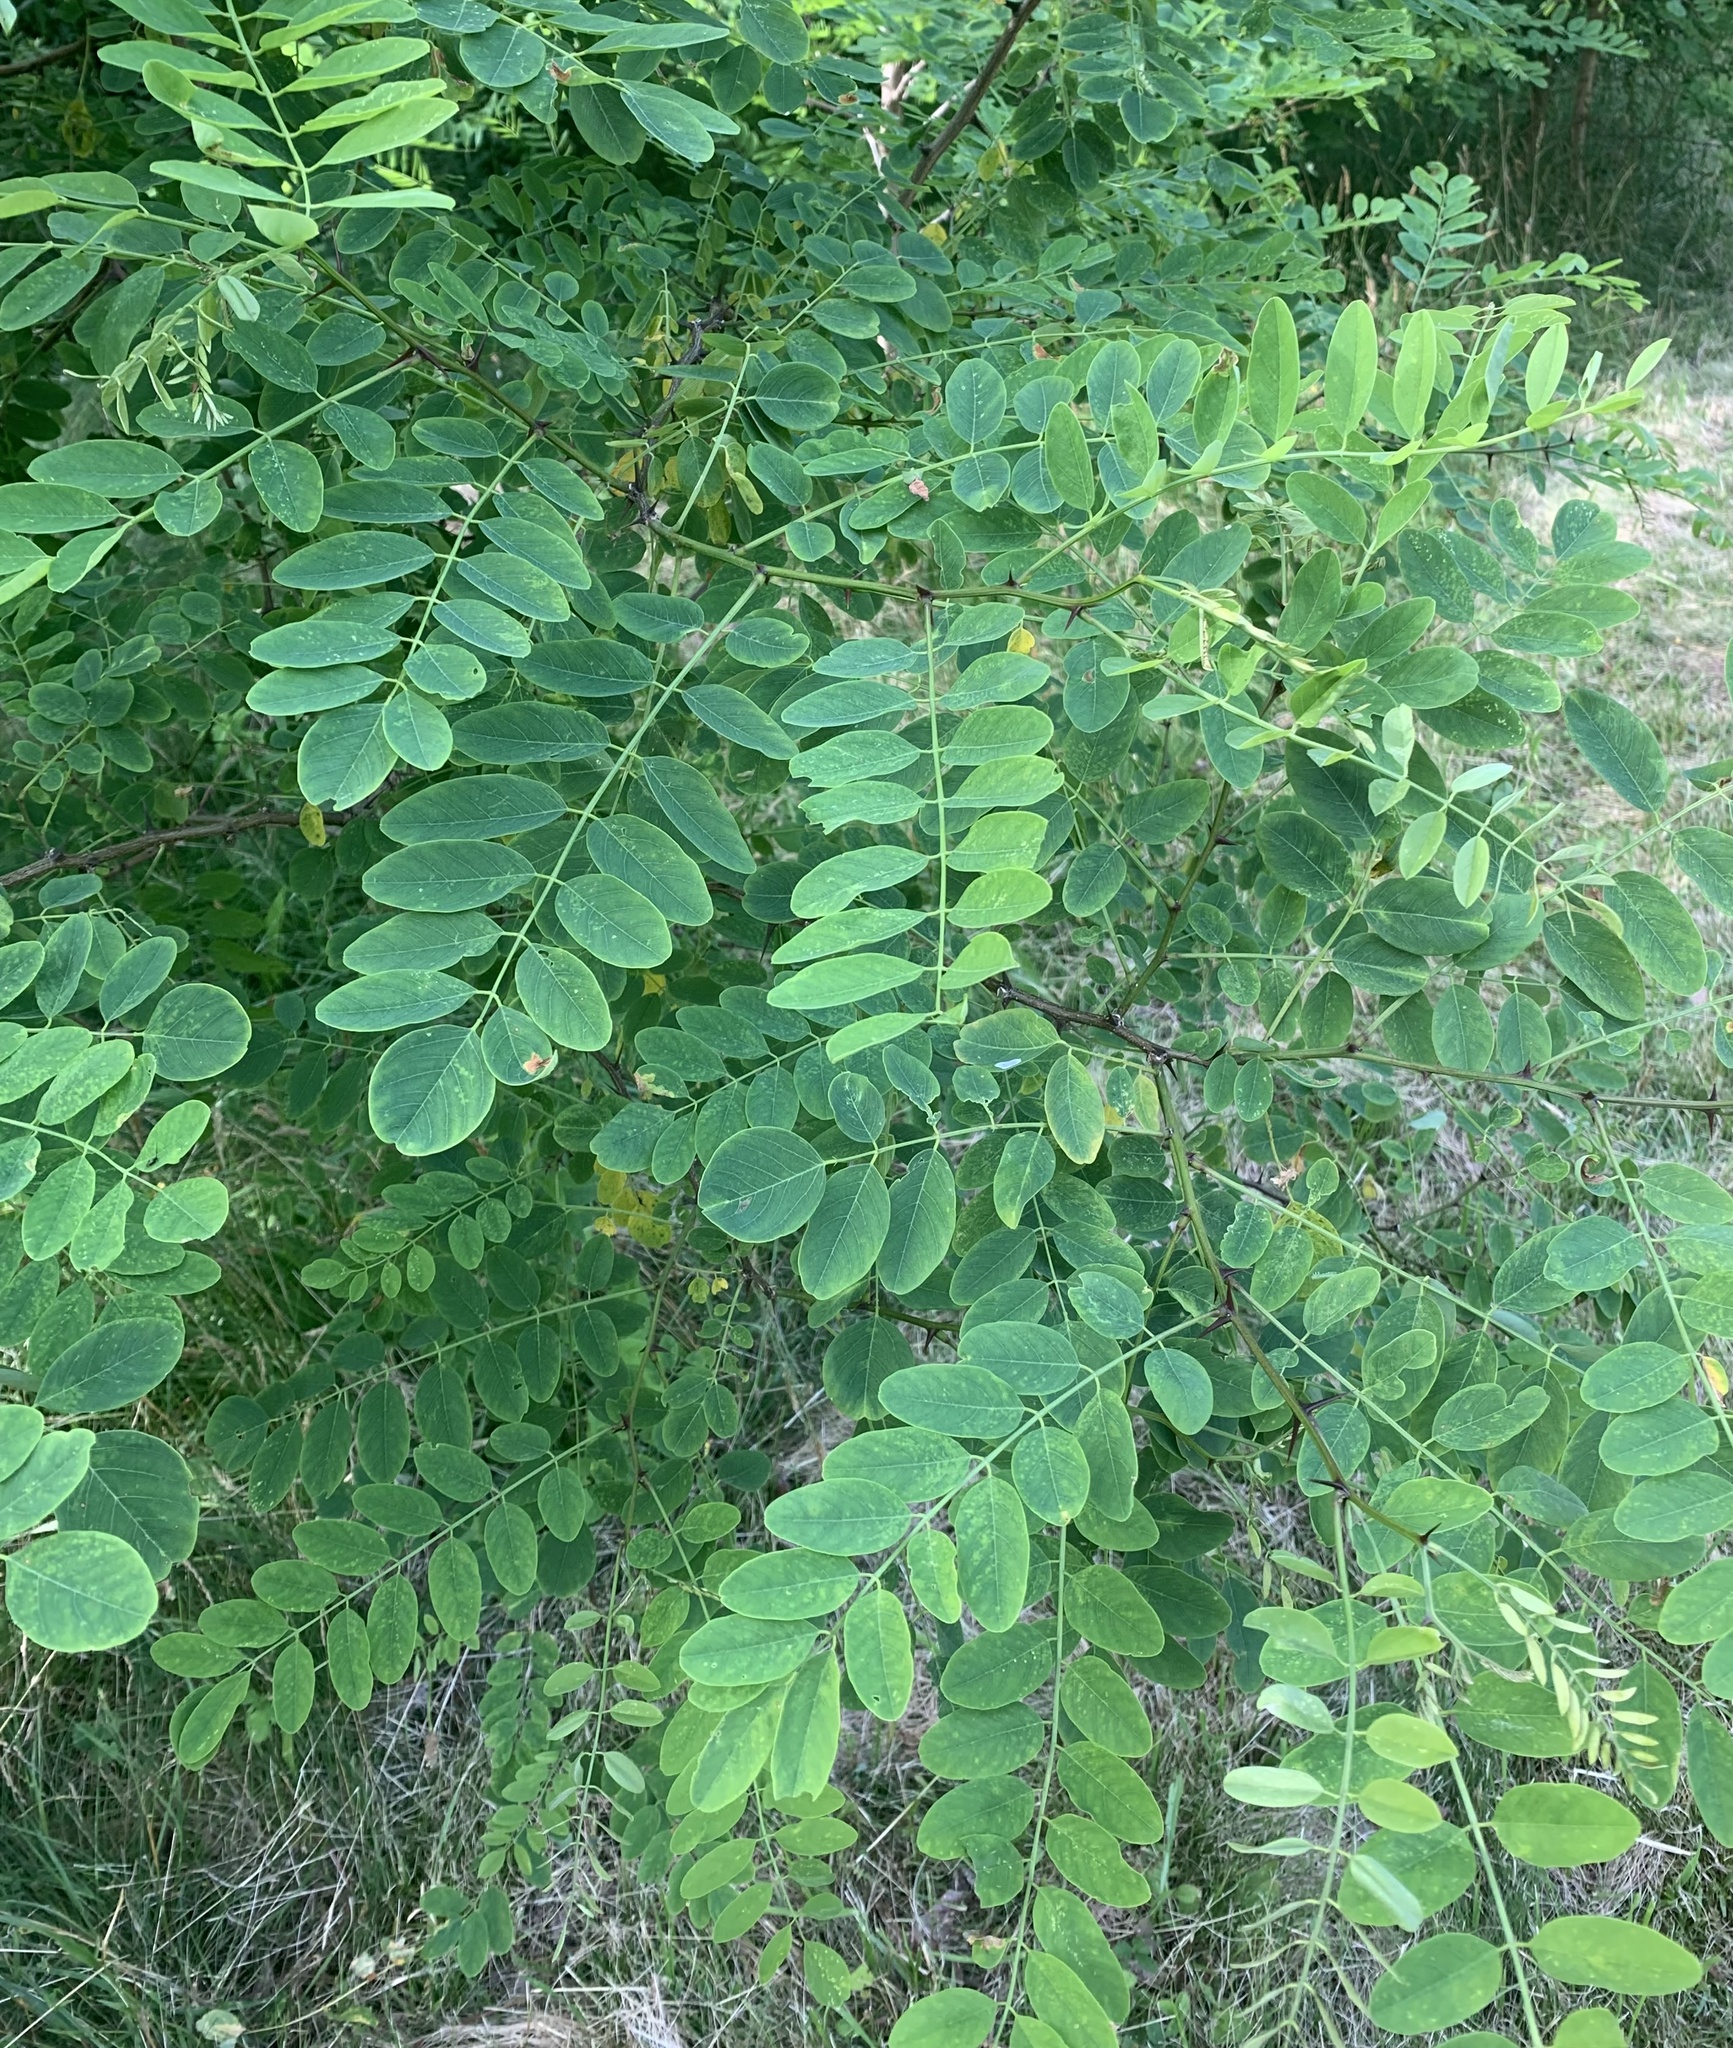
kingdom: Plantae
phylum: Tracheophyta
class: Magnoliopsida
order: Fabales
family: Fabaceae
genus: Robinia
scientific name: Robinia pseudoacacia
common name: Black locust
